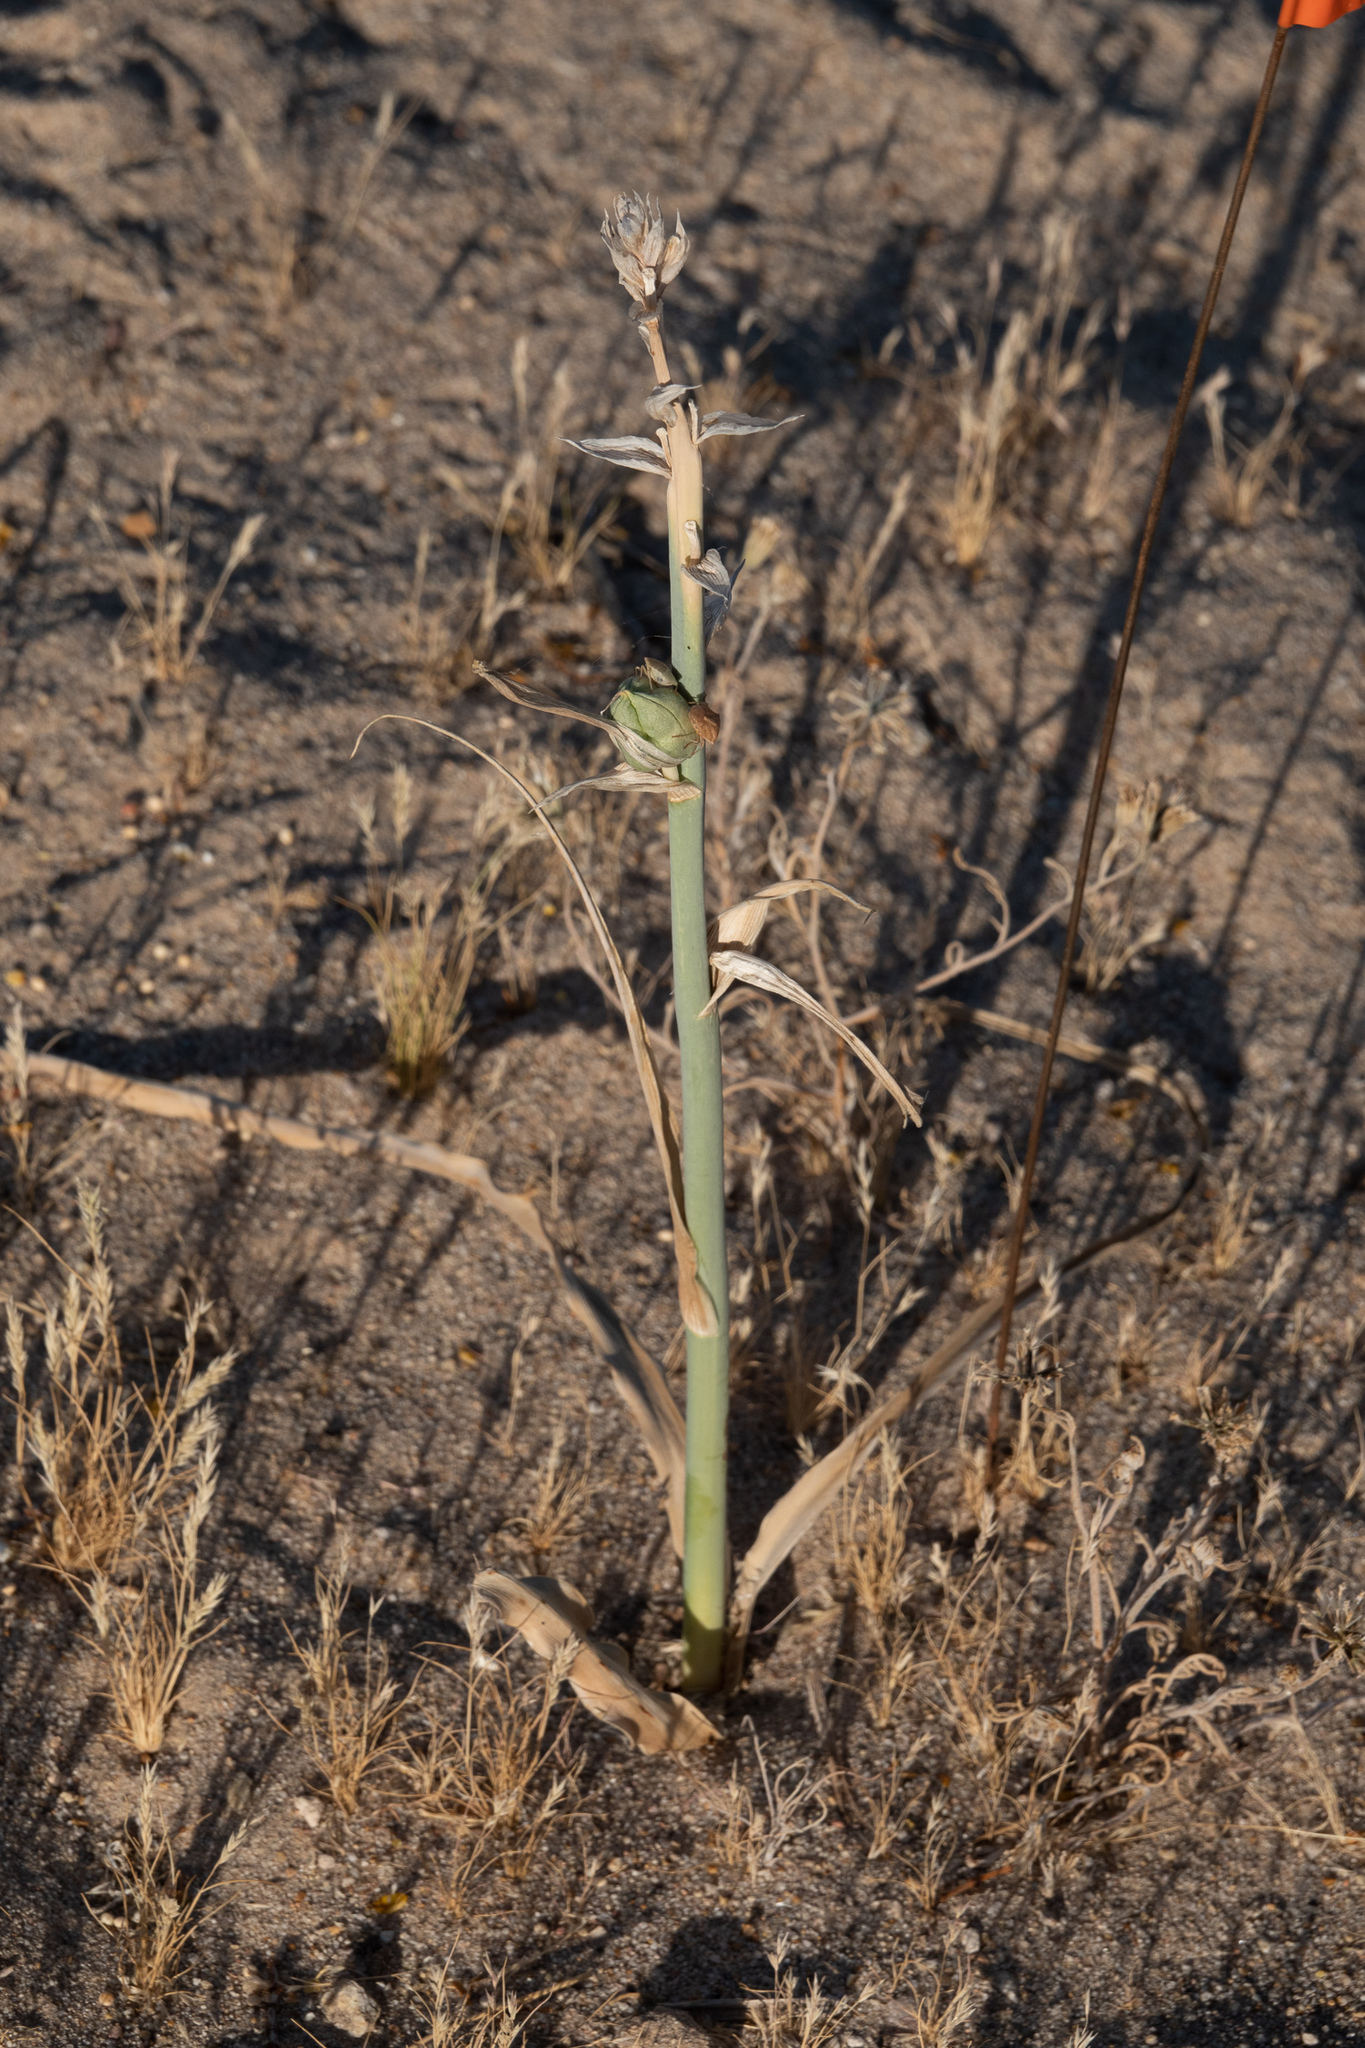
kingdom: Plantae
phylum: Tracheophyta
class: Liliopsida
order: Asparagales
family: Asparagaceae
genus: Hesperocallis
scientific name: Hesperocallis undulata
